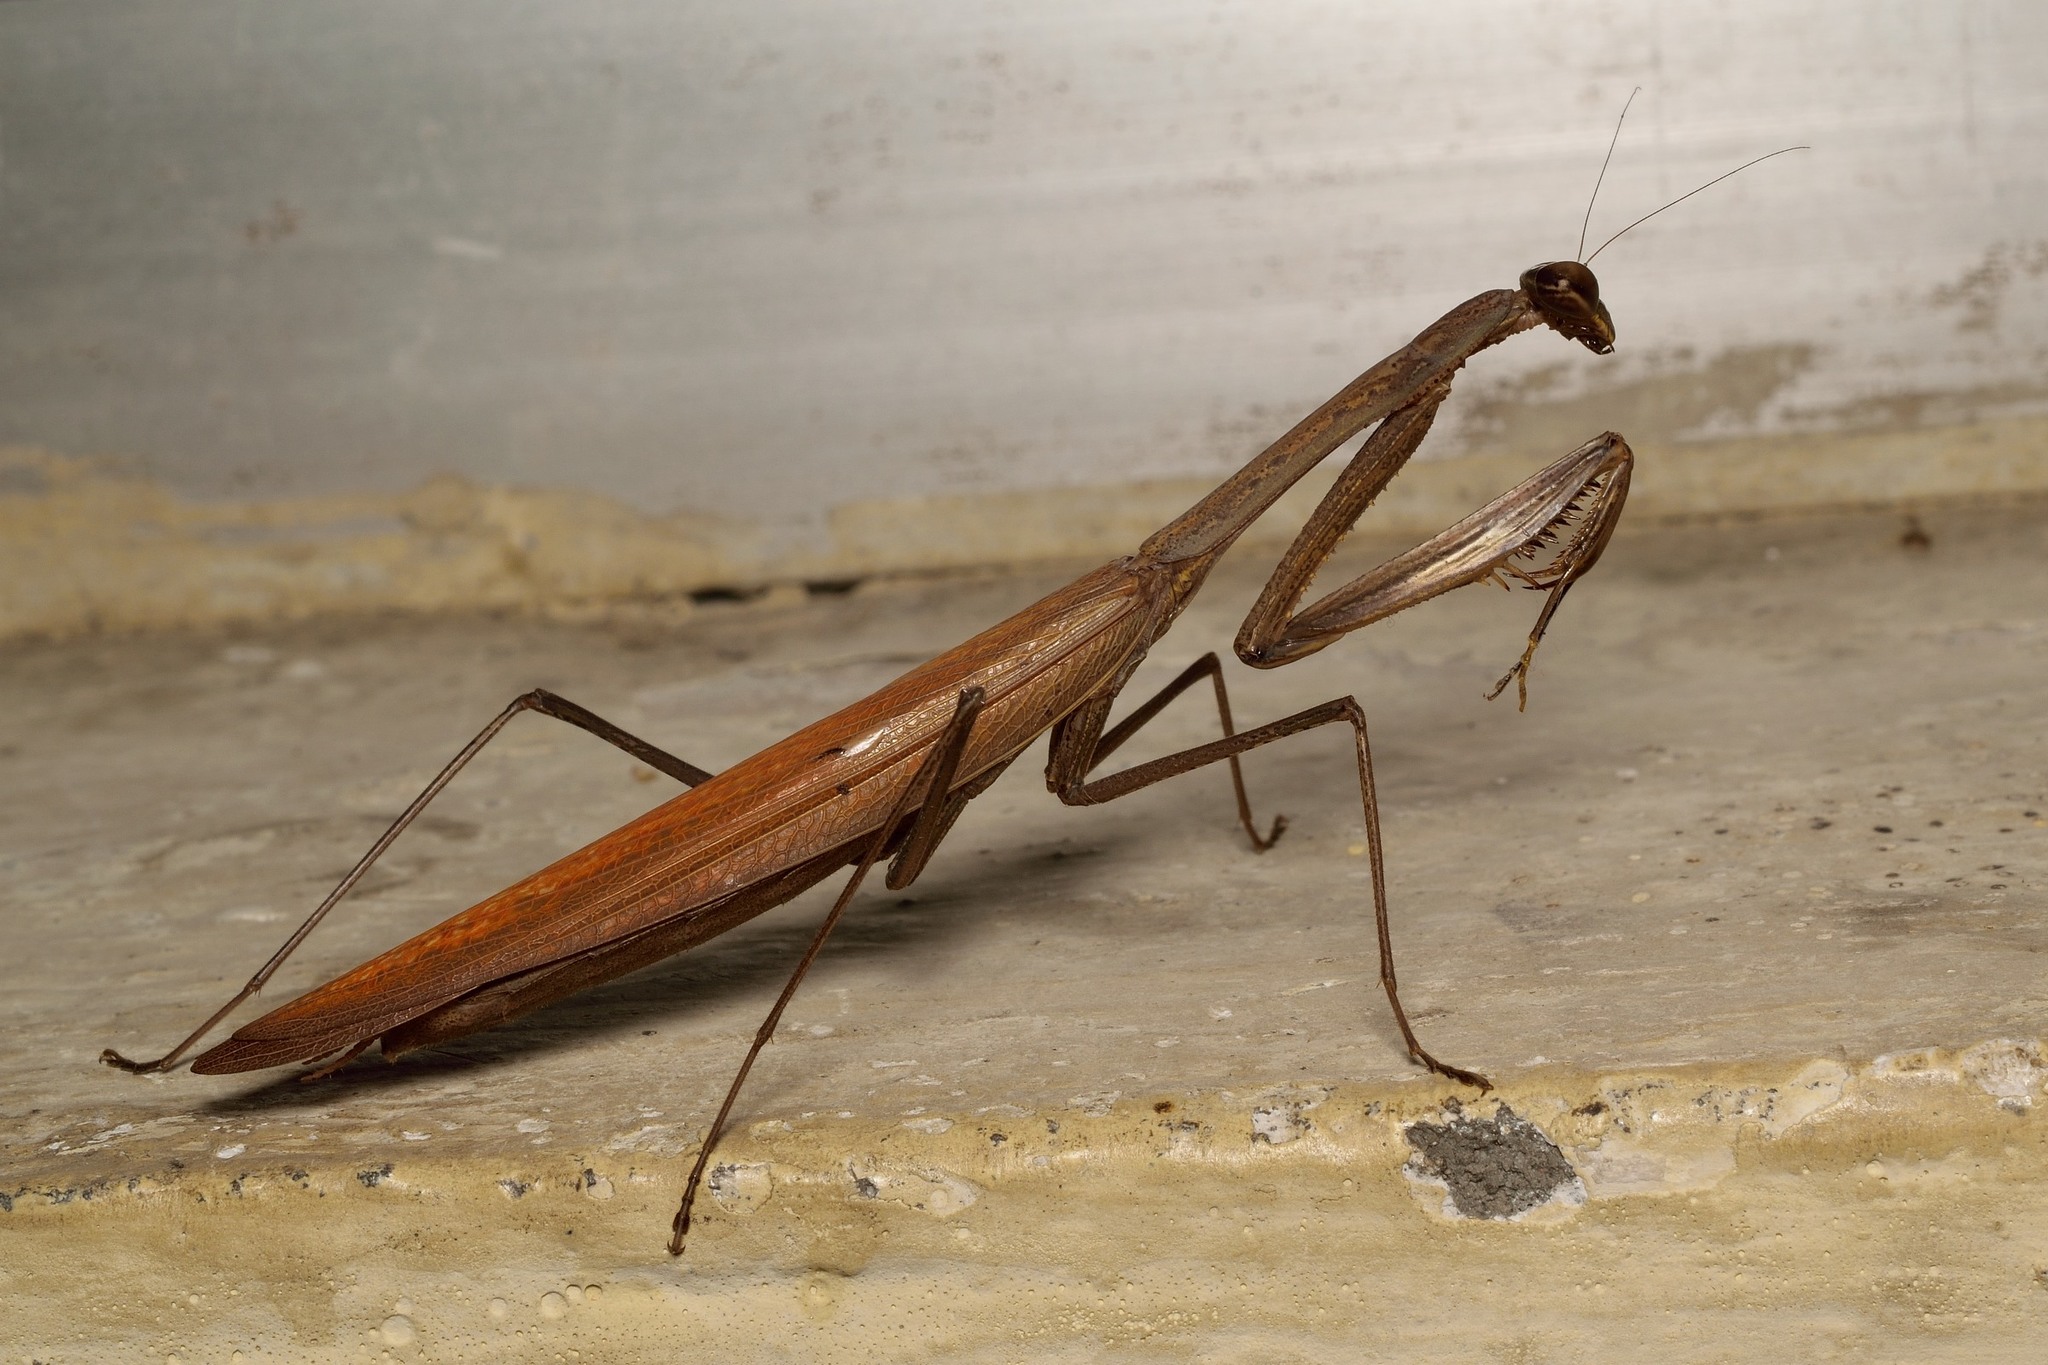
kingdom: Animalia
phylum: Arthropoda
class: Insecta
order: Mantodea
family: Mantidae
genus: Statilia
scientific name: Statilia maculata
